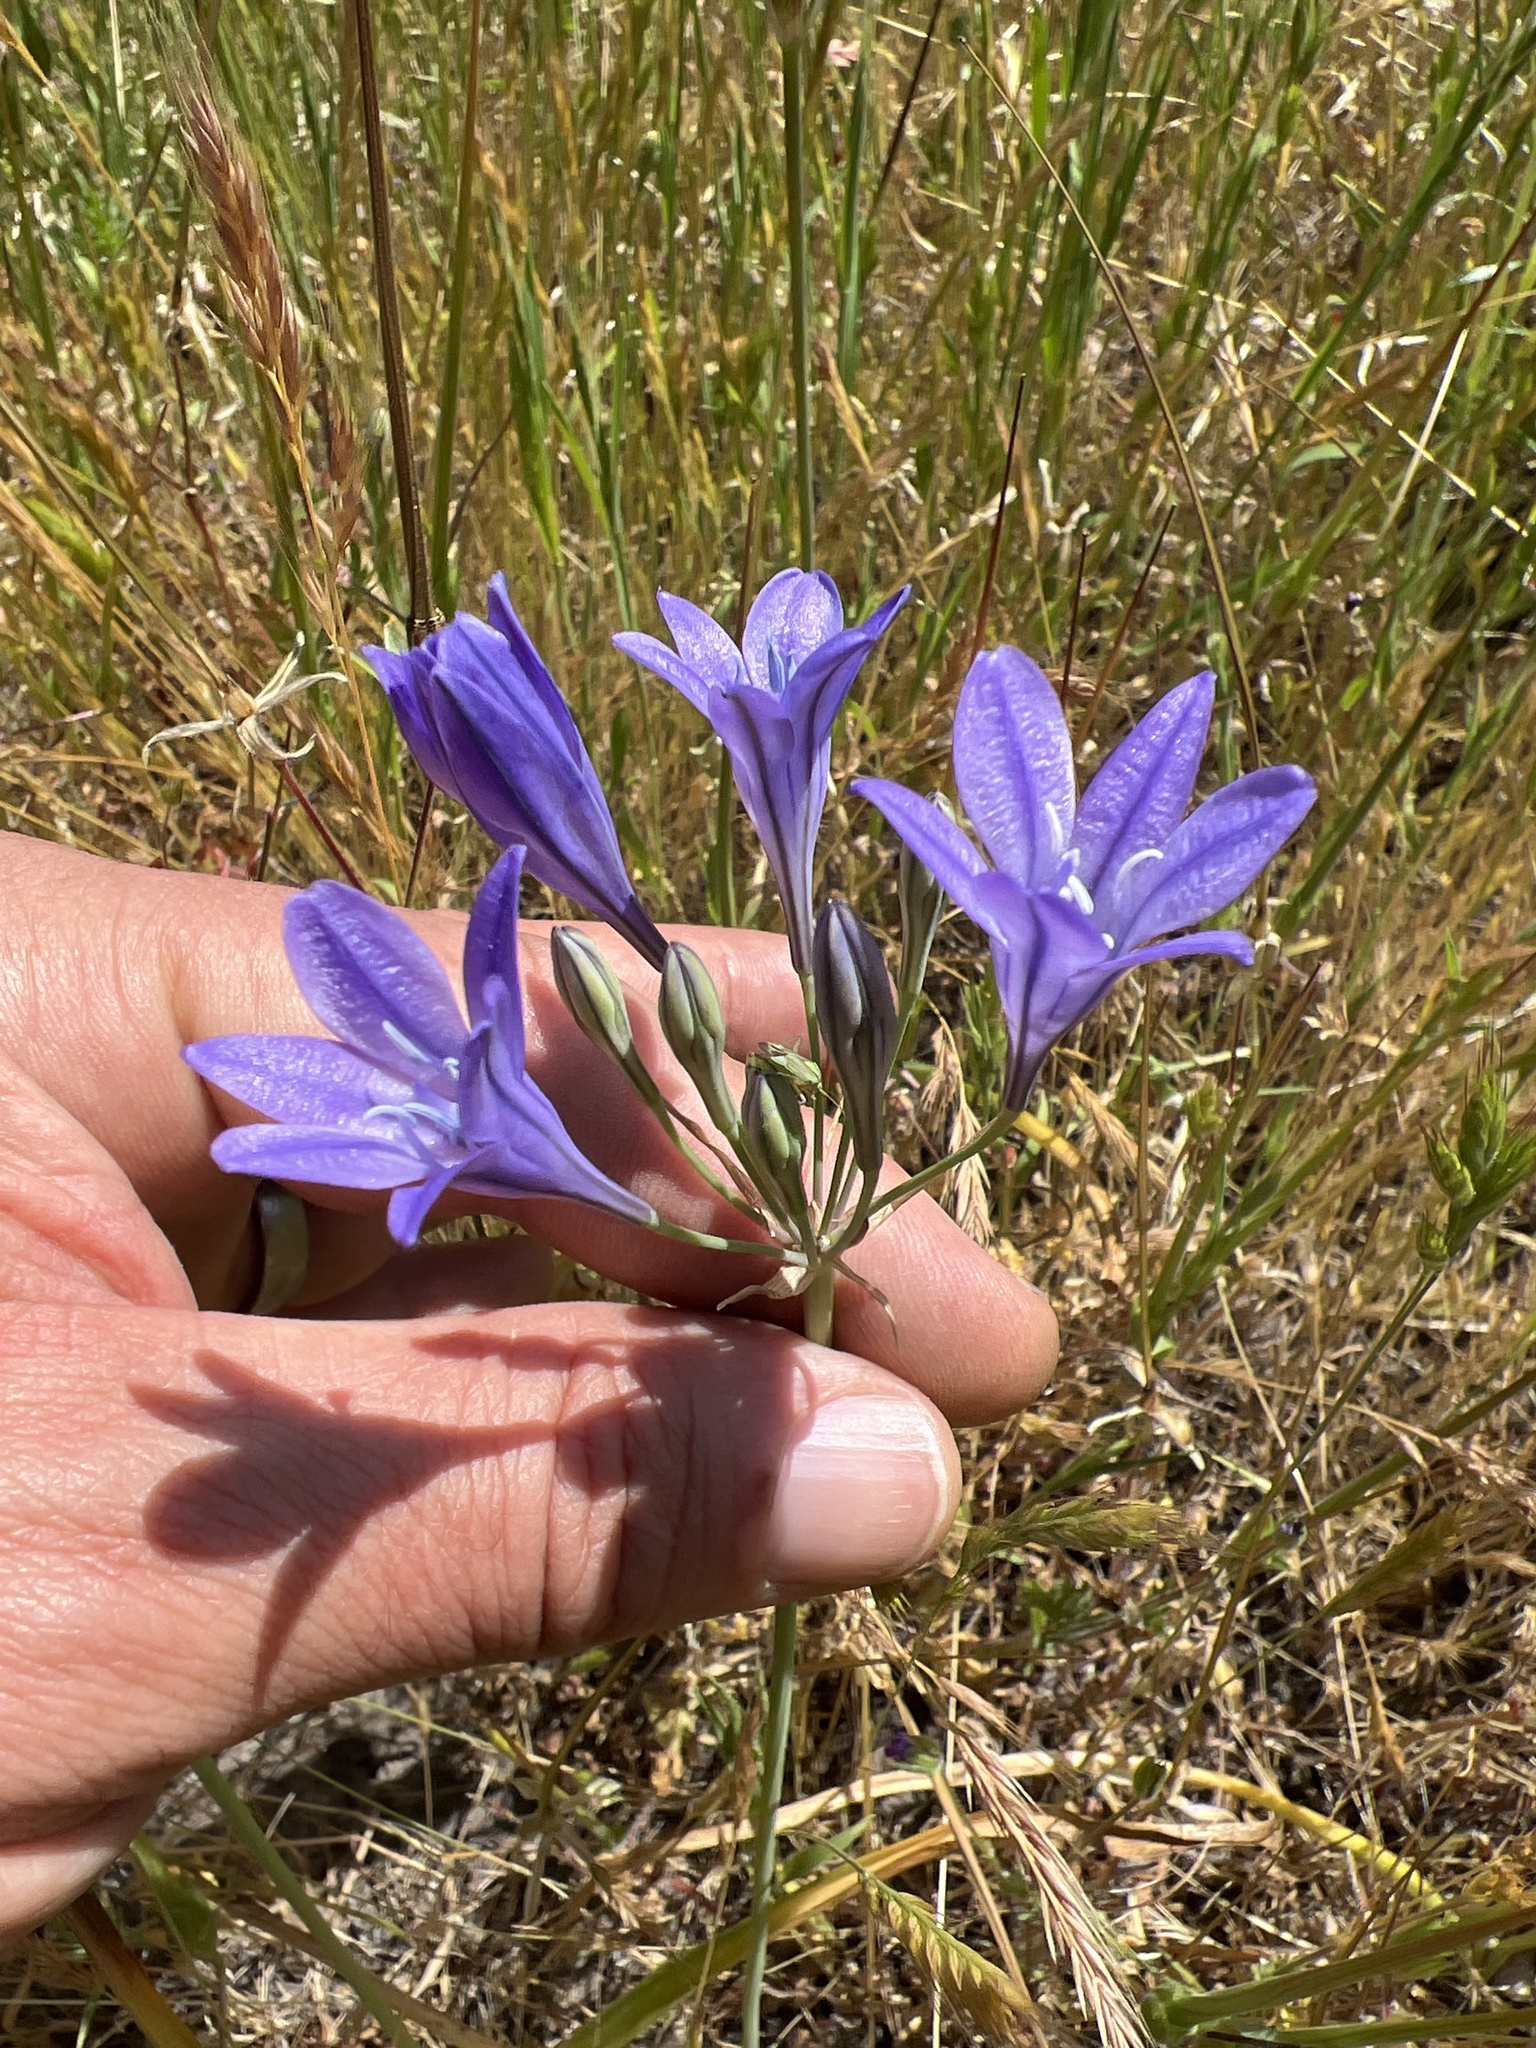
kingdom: Plantae
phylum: Tracheophyta
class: Liliopsida
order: Asparagales
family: Asparagaceae
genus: Triteleia
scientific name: Triteleia laxa
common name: Triplet-lily
